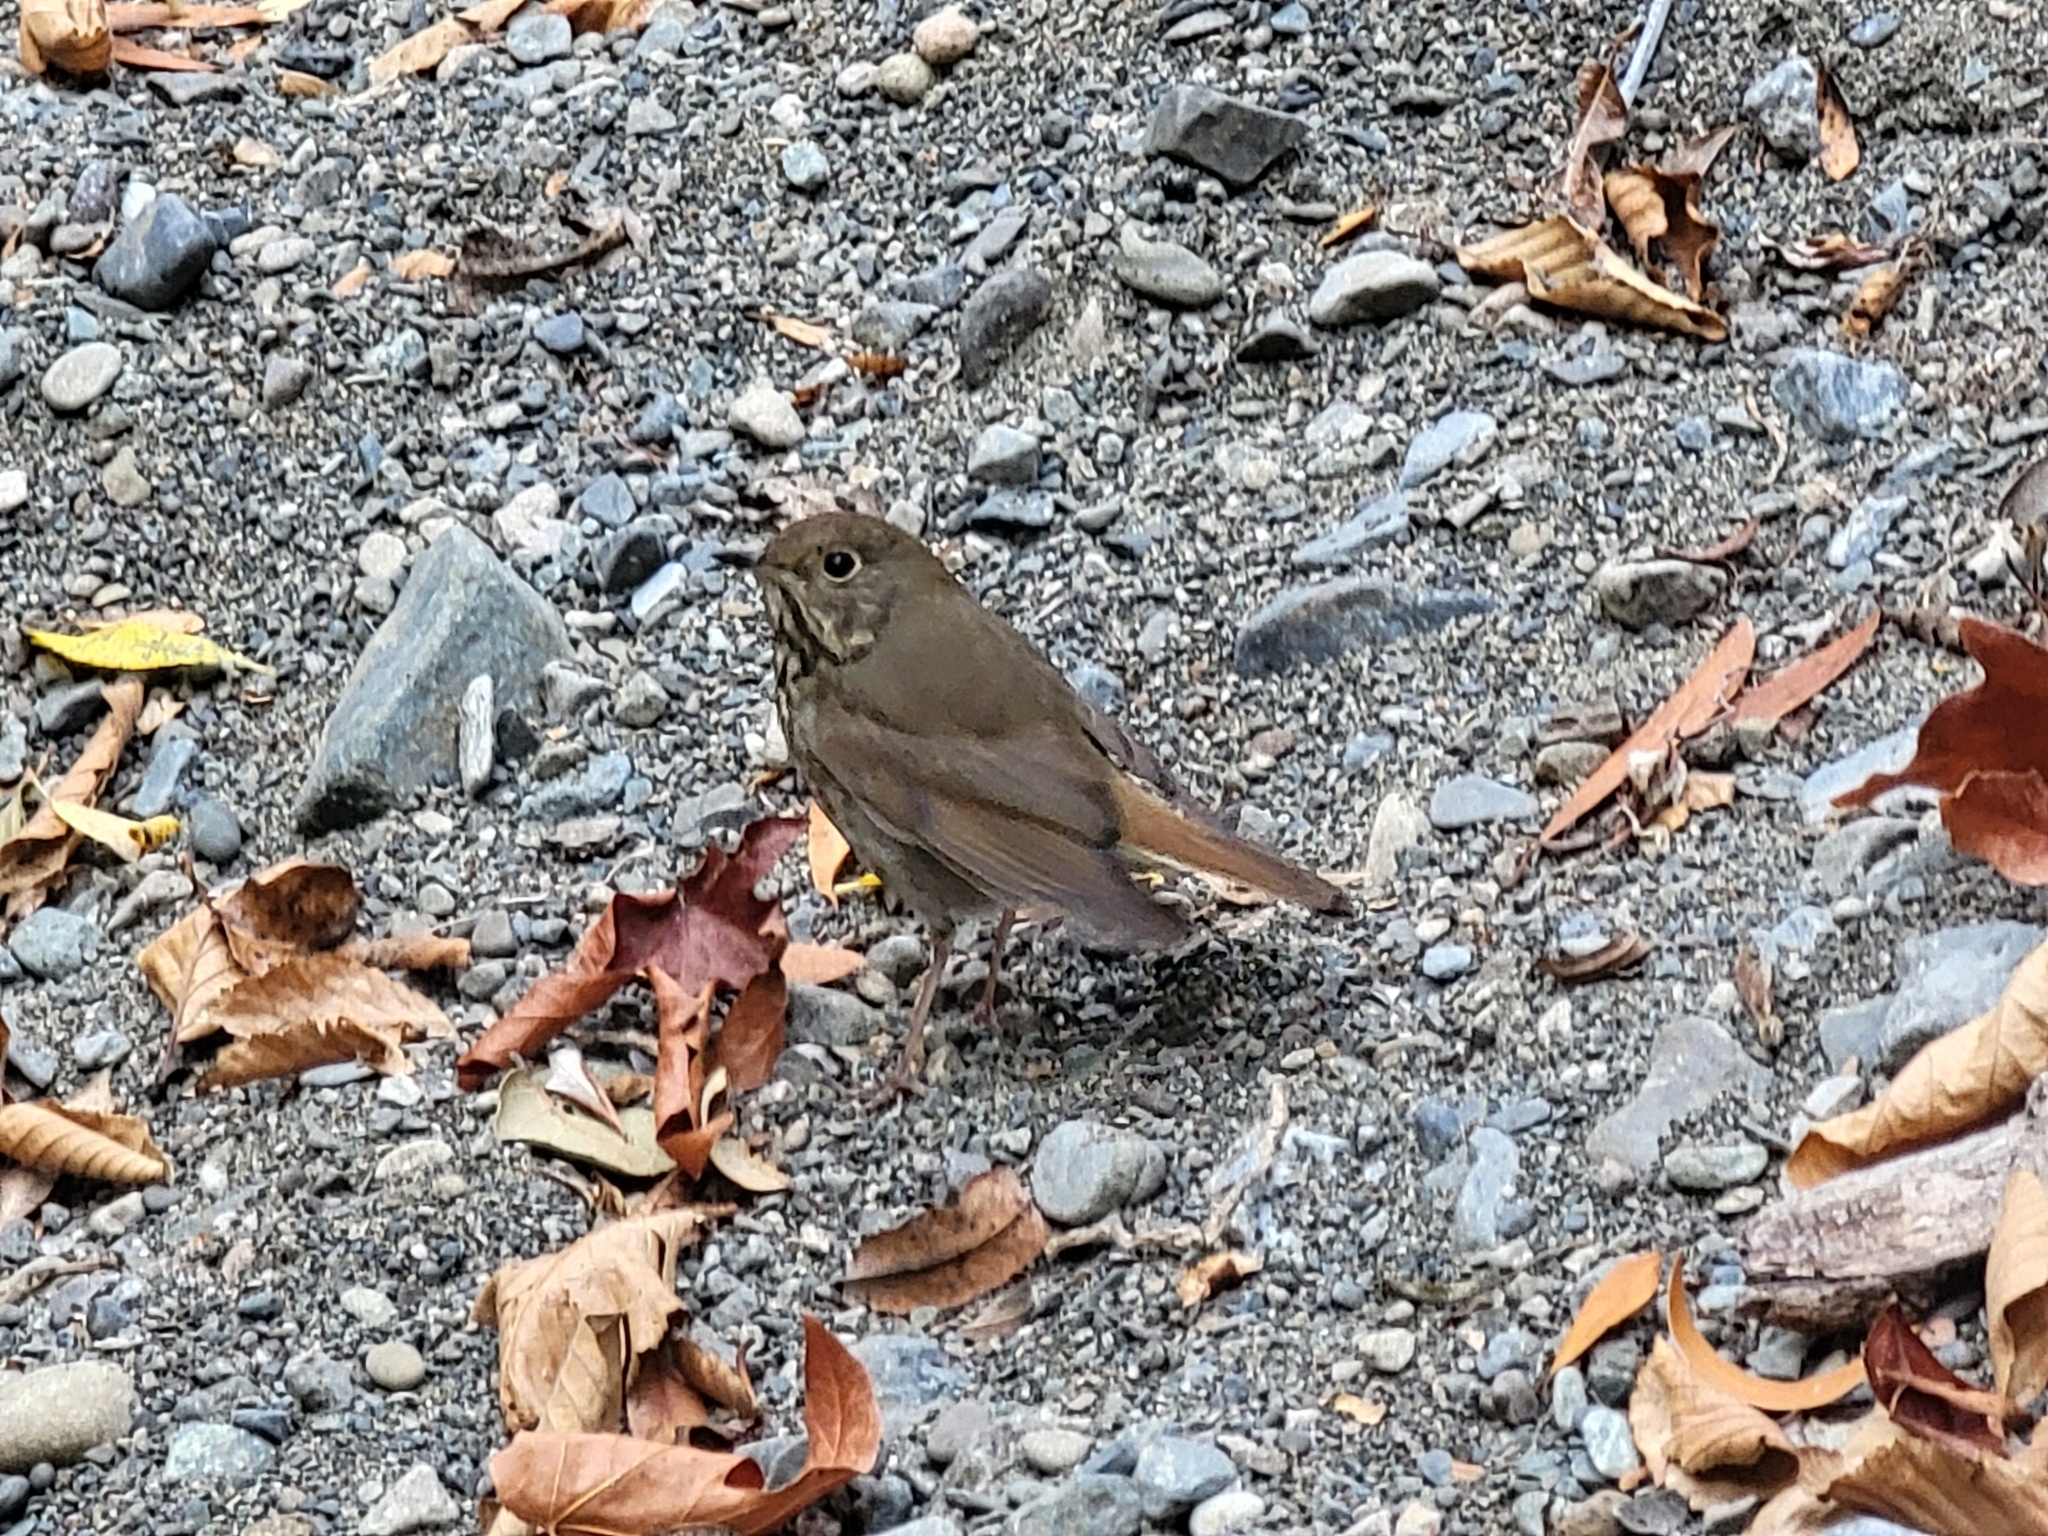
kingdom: Animalia
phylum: Chordata
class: Aves
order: Passeriformes
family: Turdidae
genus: Catharus
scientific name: Catharus guttatus
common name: Hermit thrush
